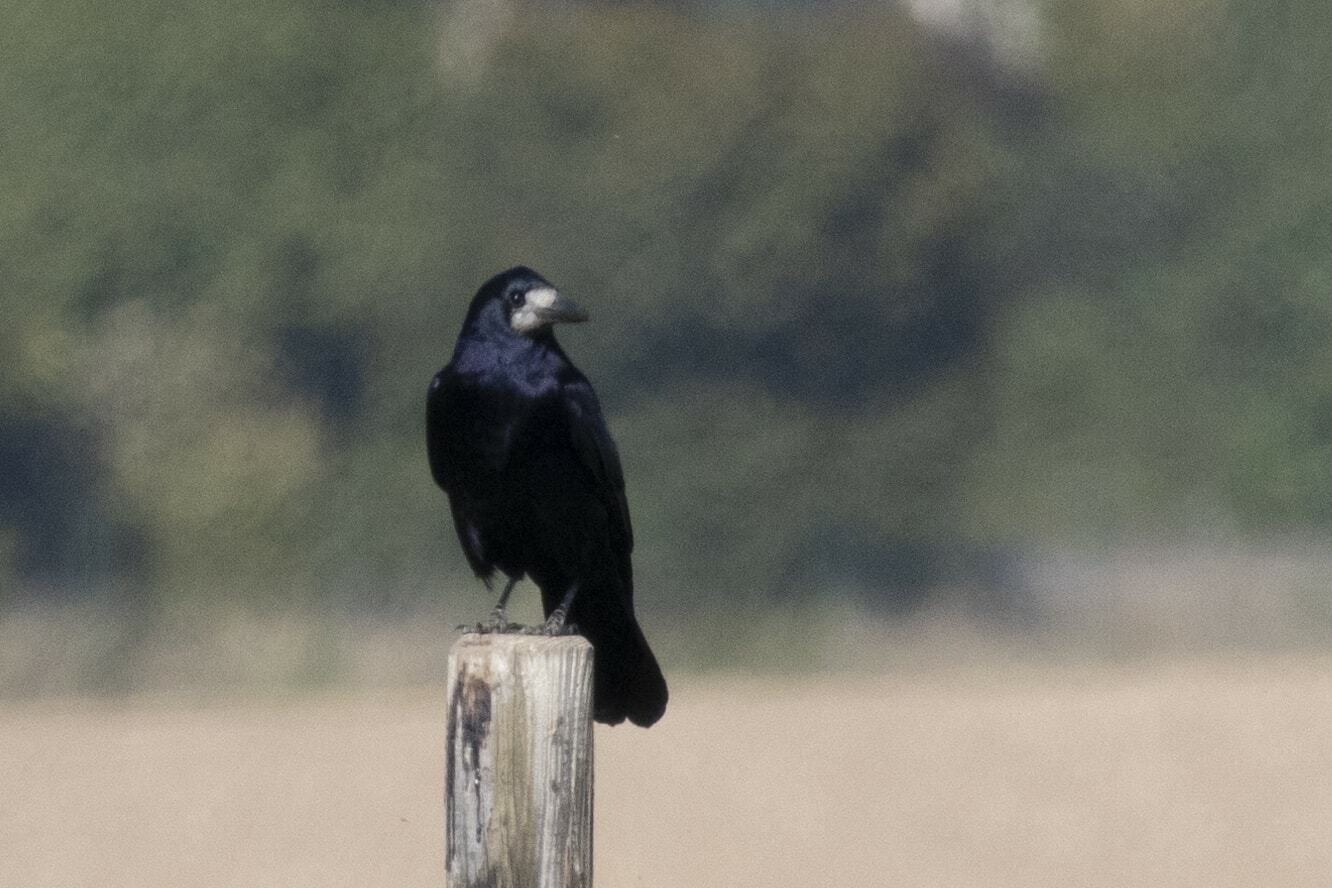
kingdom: Animalia
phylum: Chordata
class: Aves
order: Passeriformes
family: Corvidae
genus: Corvus
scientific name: Corvus frugilegus
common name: Rook
